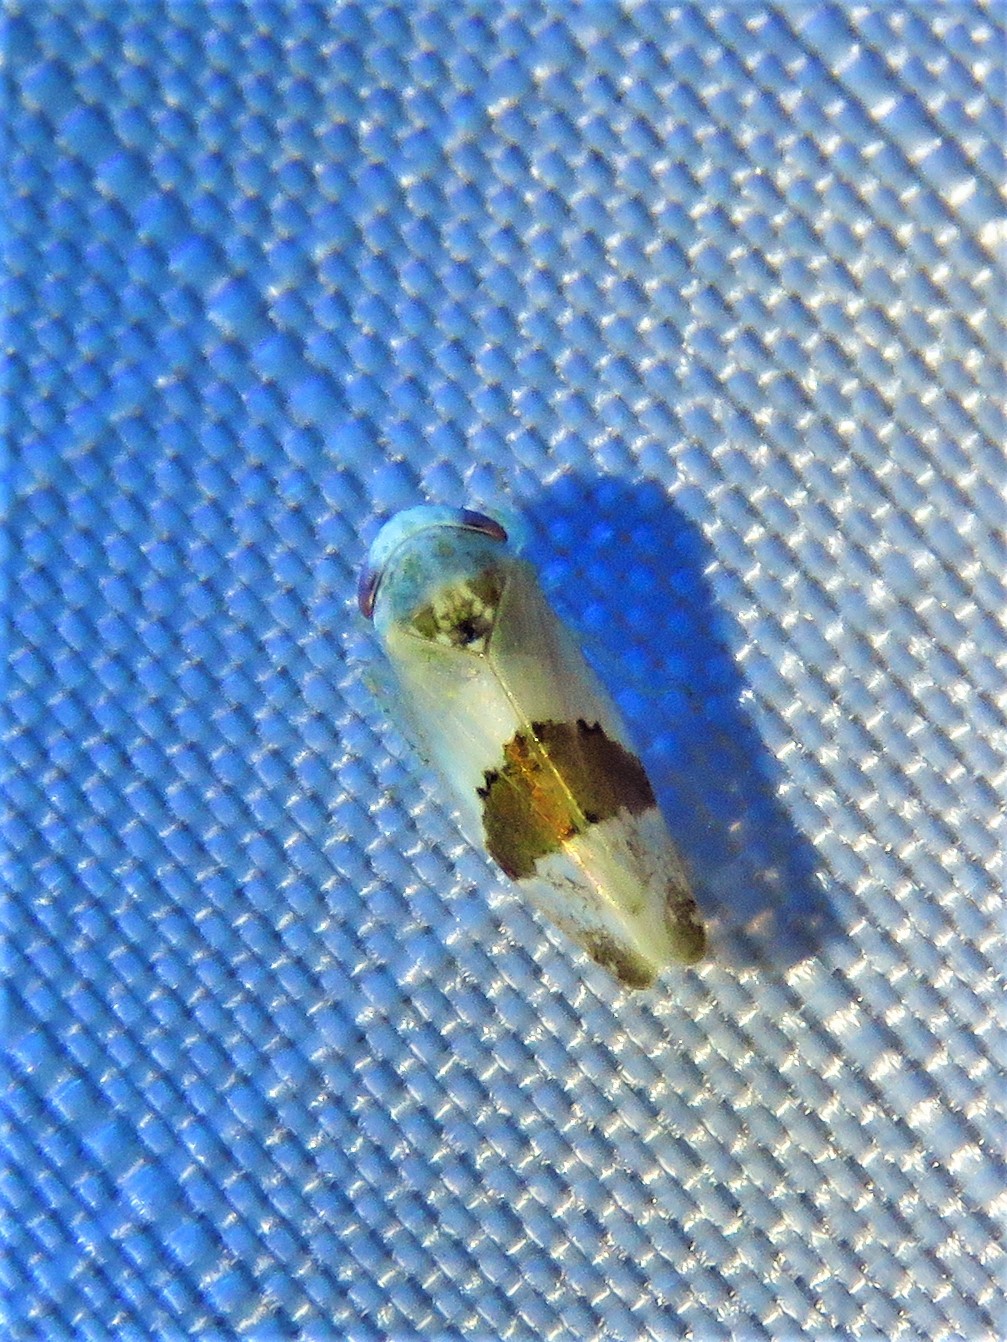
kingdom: Animalia
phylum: Arthropoda
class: Insecta
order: Hemiptera
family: Cicadellidae
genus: Norvellina
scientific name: Norvellina seminuda
